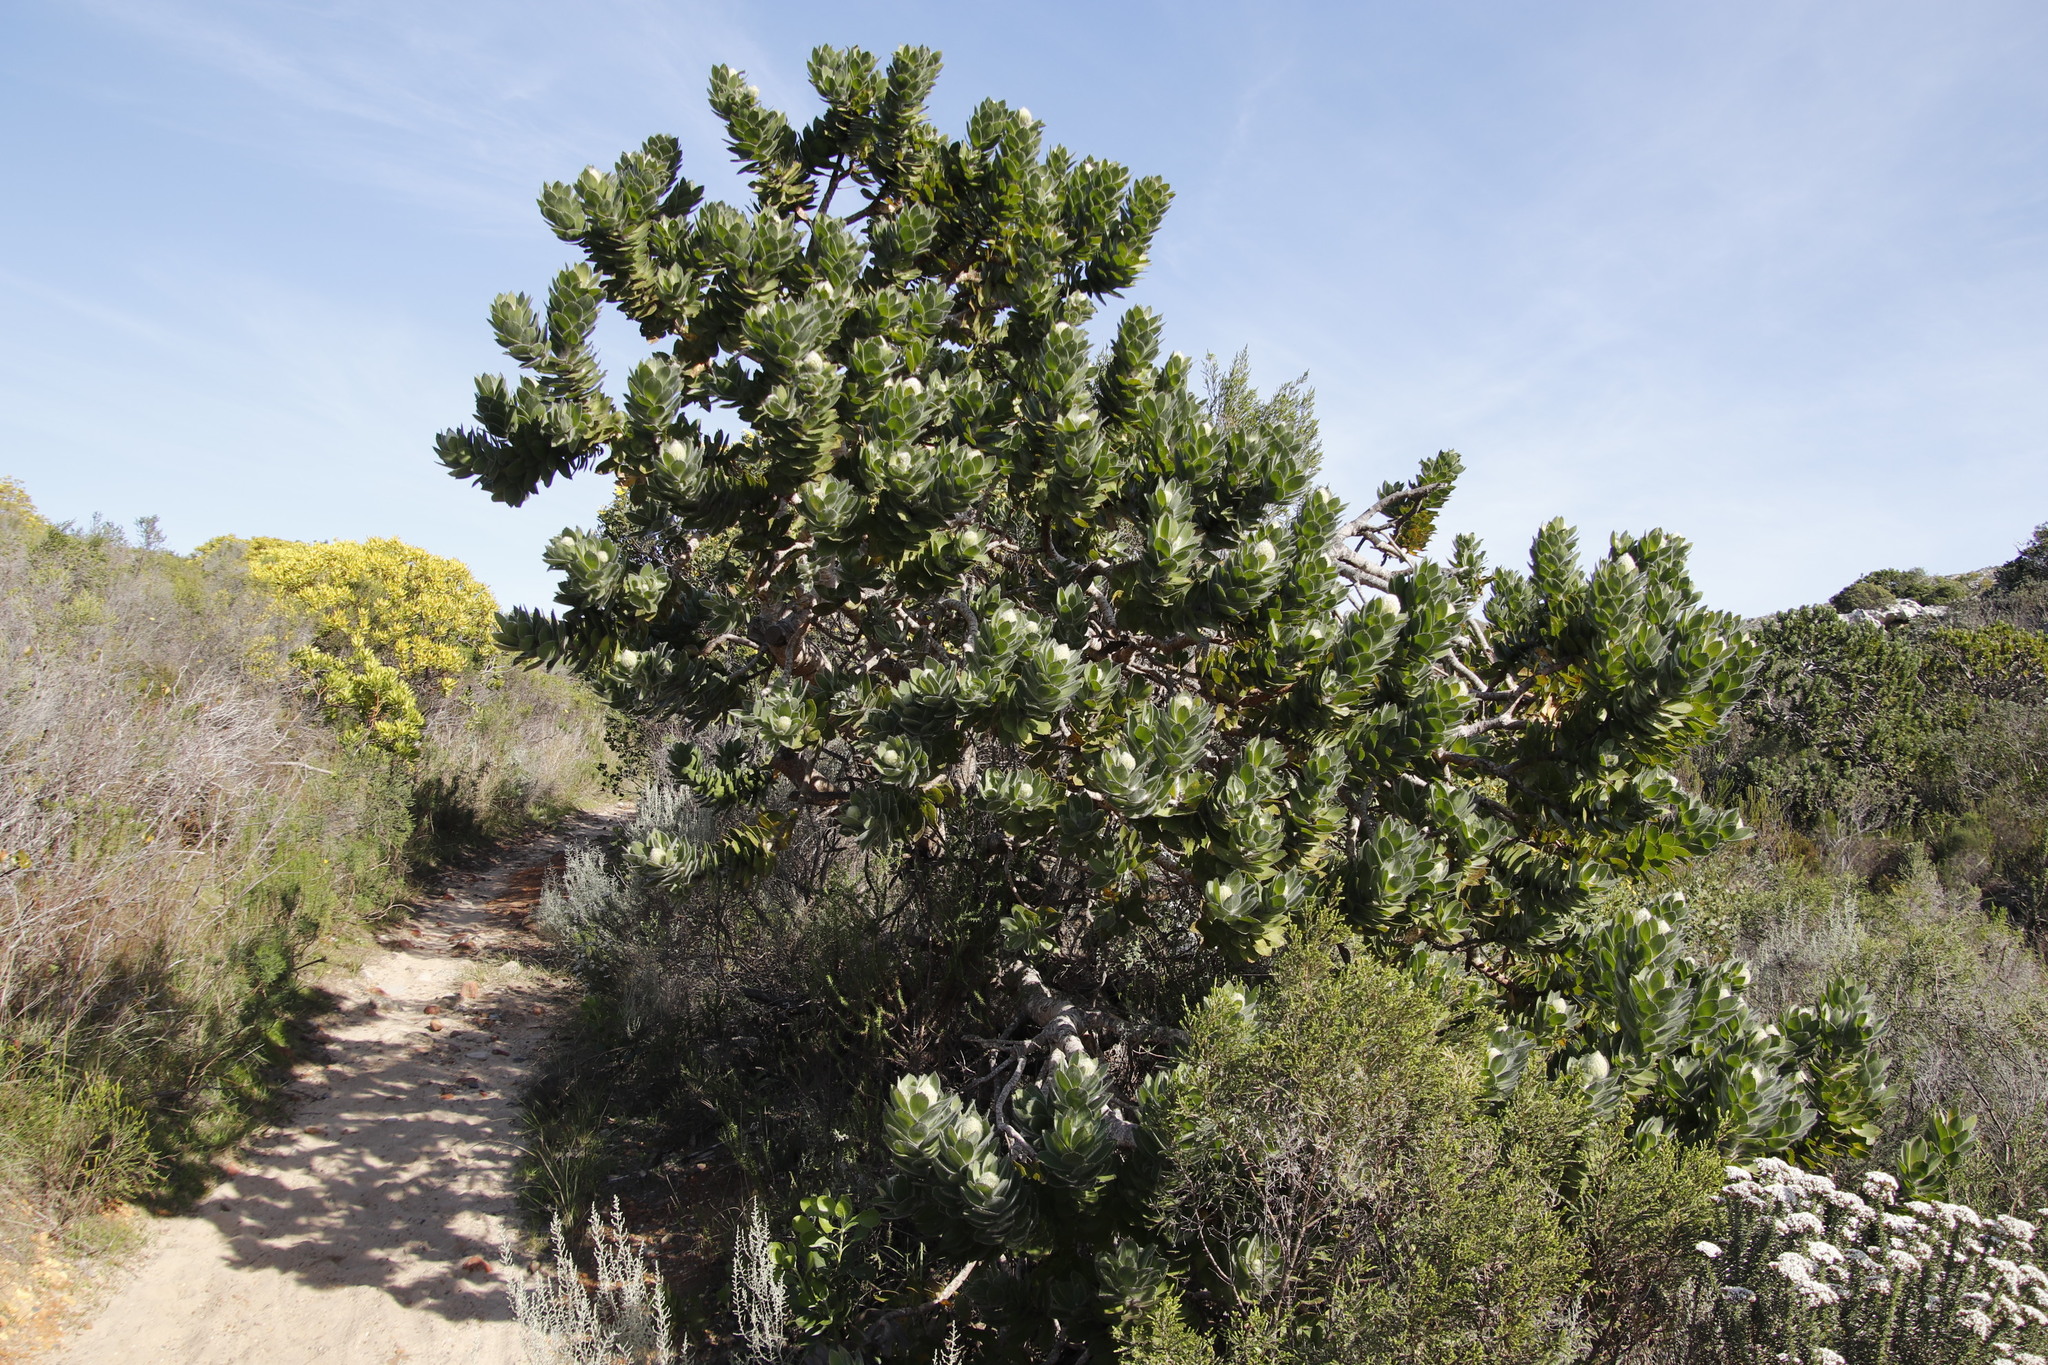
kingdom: Plantae
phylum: Tracheophyta
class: Magnoliopsida
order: Proteales
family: Proteaceae
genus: Leucospermum
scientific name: Leucospermum conocarpodendron
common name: Tree pincushion
